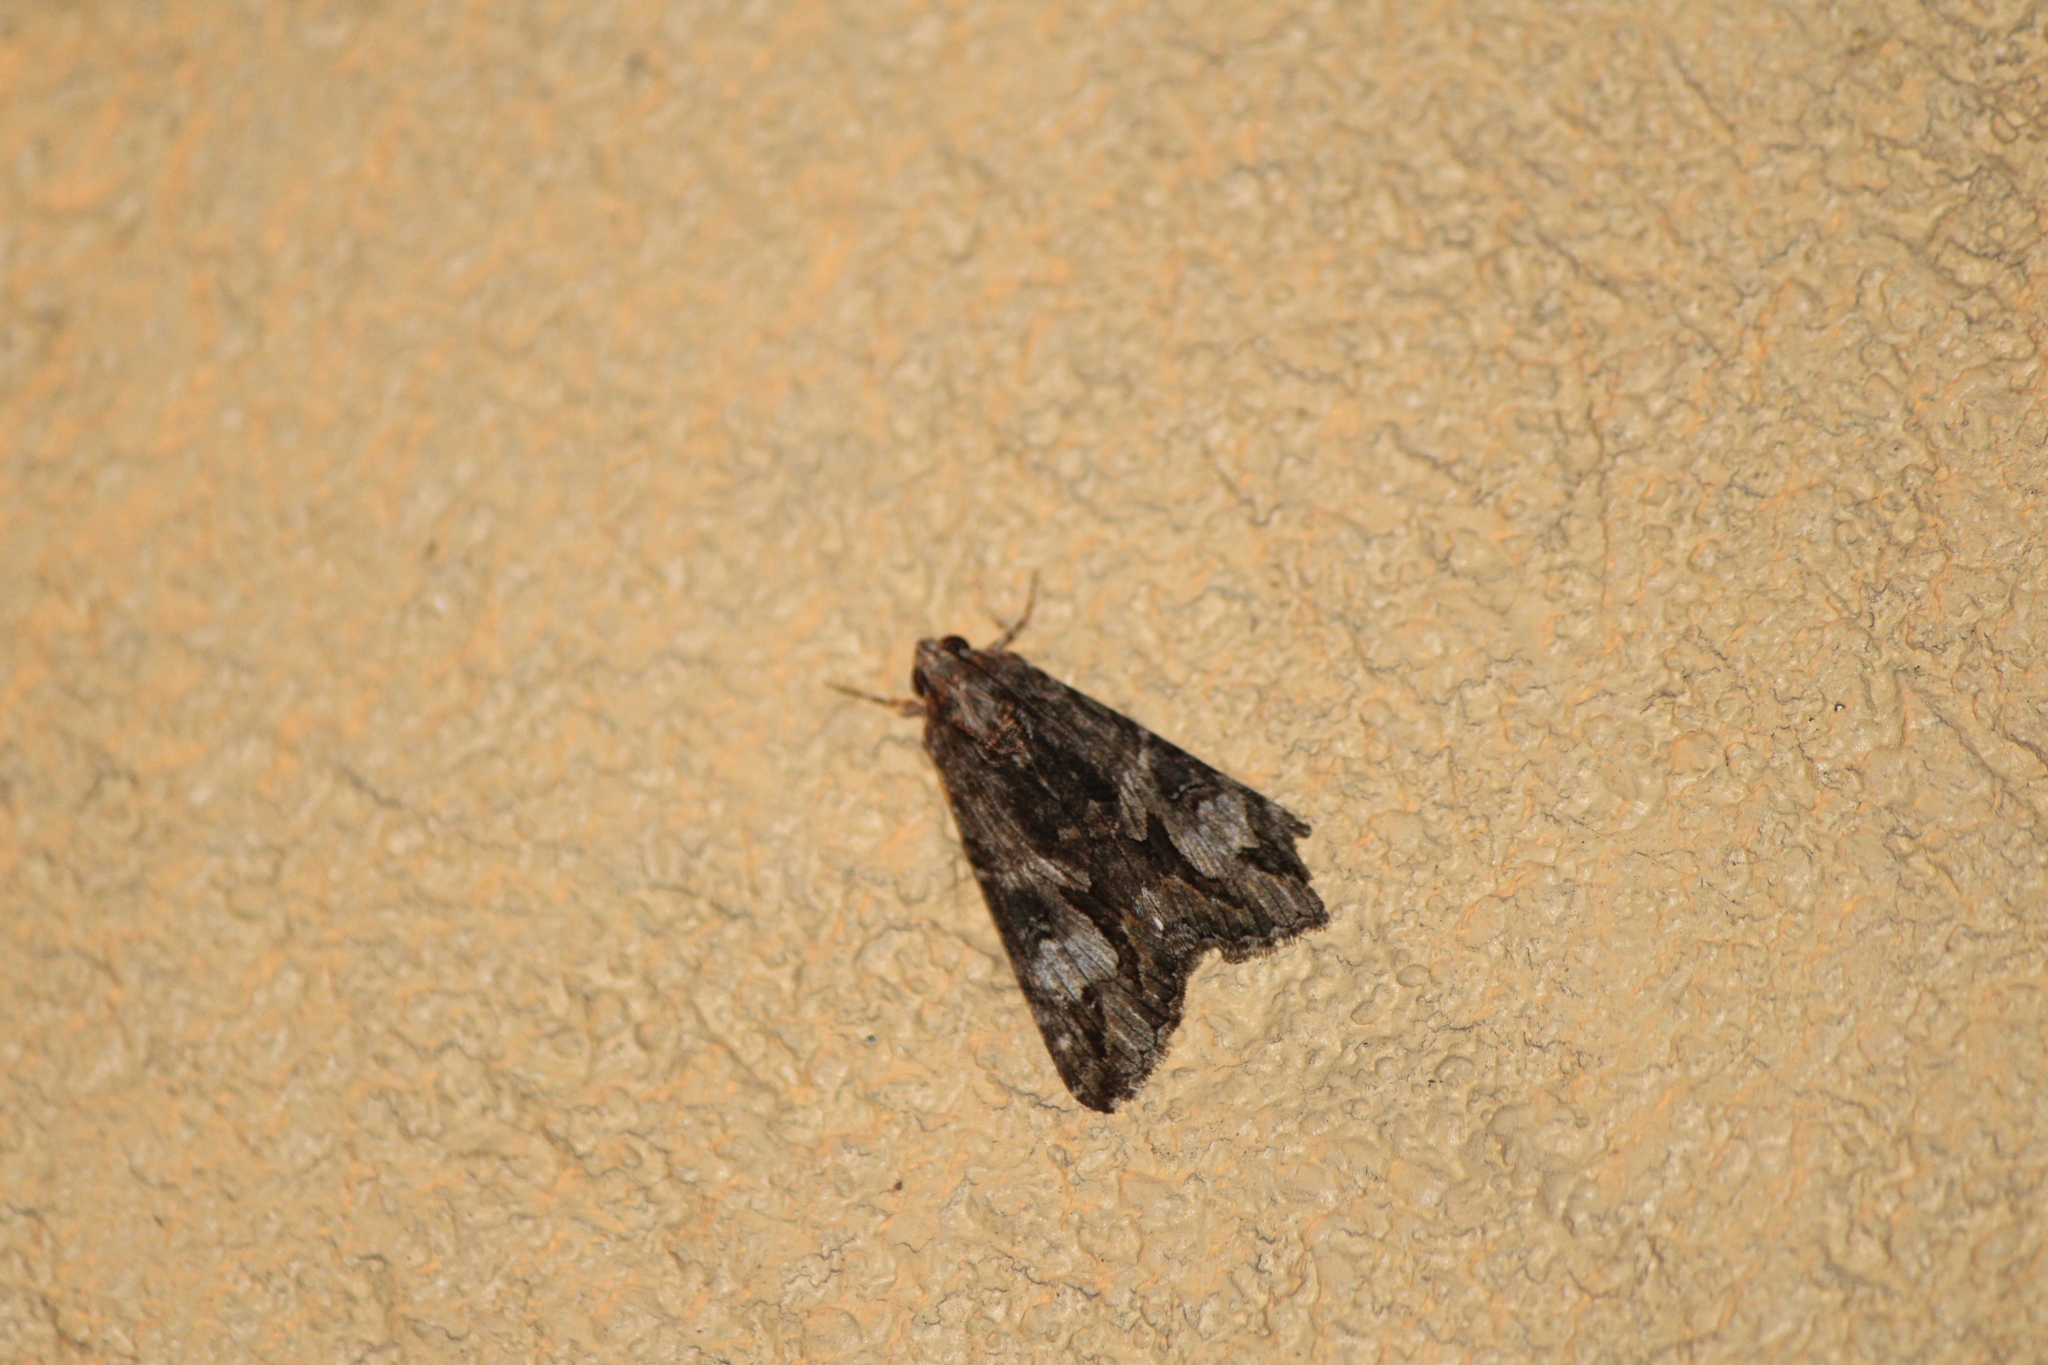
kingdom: Animalia
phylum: Arthropoda
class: Insecta
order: Lepidoptera
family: Erebidae
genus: Melipotis
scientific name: Melipotis jucunda
